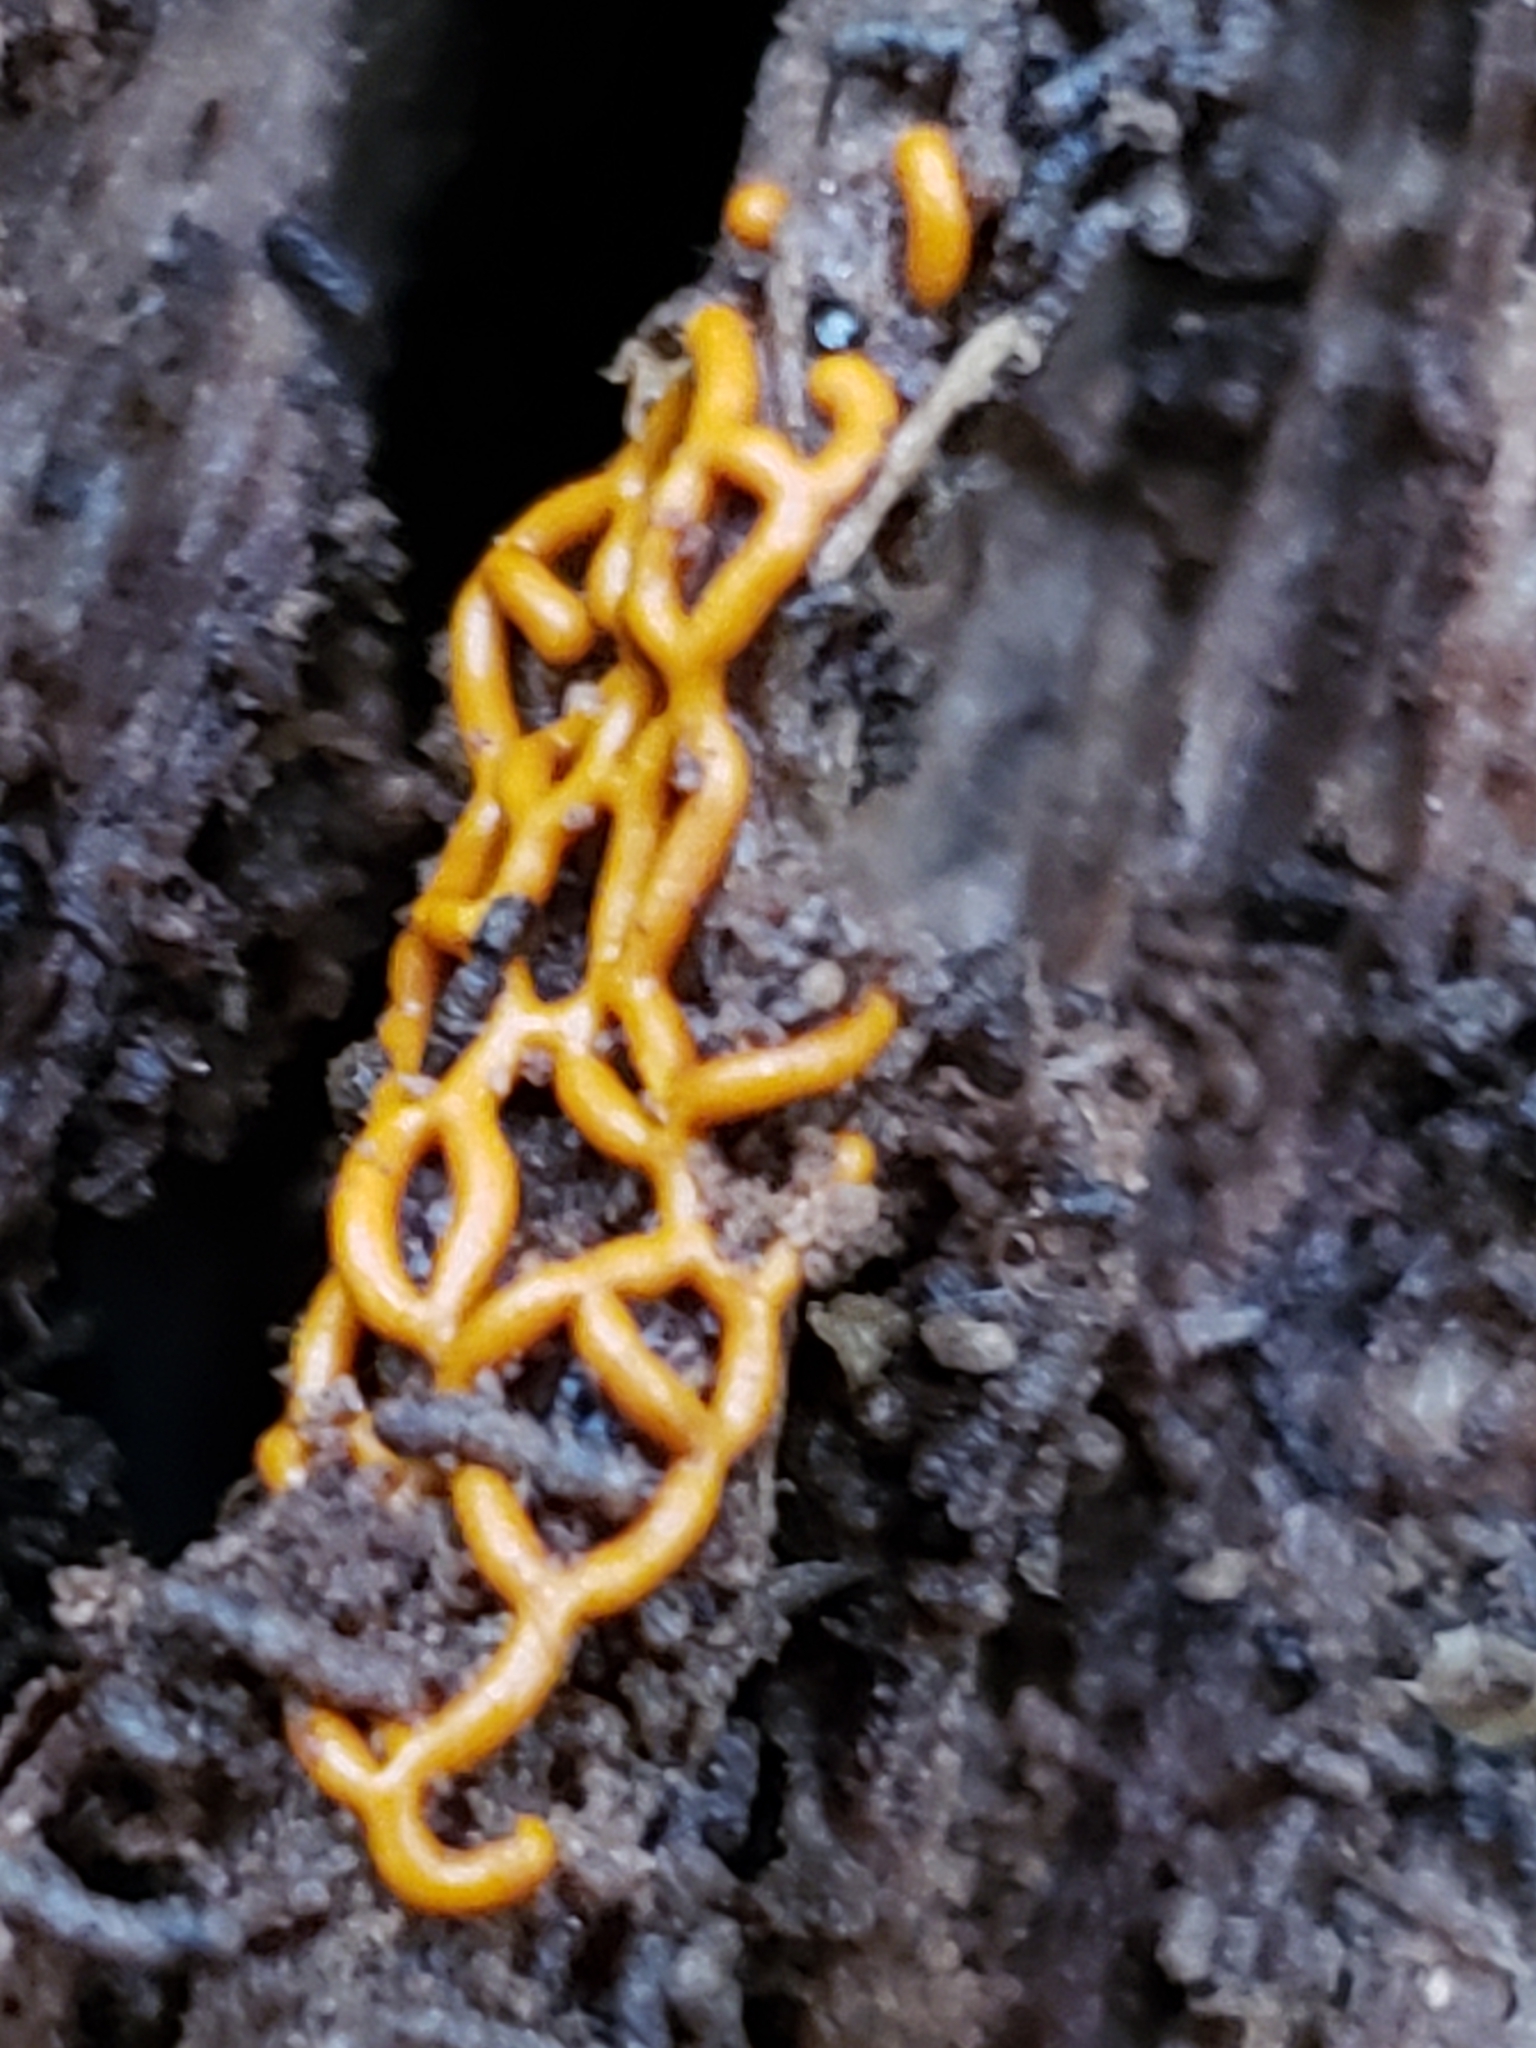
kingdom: Protozoa
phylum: Mycetozoa
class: Myxomycetes
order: Trichiales
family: Arcyriaceae
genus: Hemitrichia
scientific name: Hemitrichia serpula
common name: Pretzel slime mold
